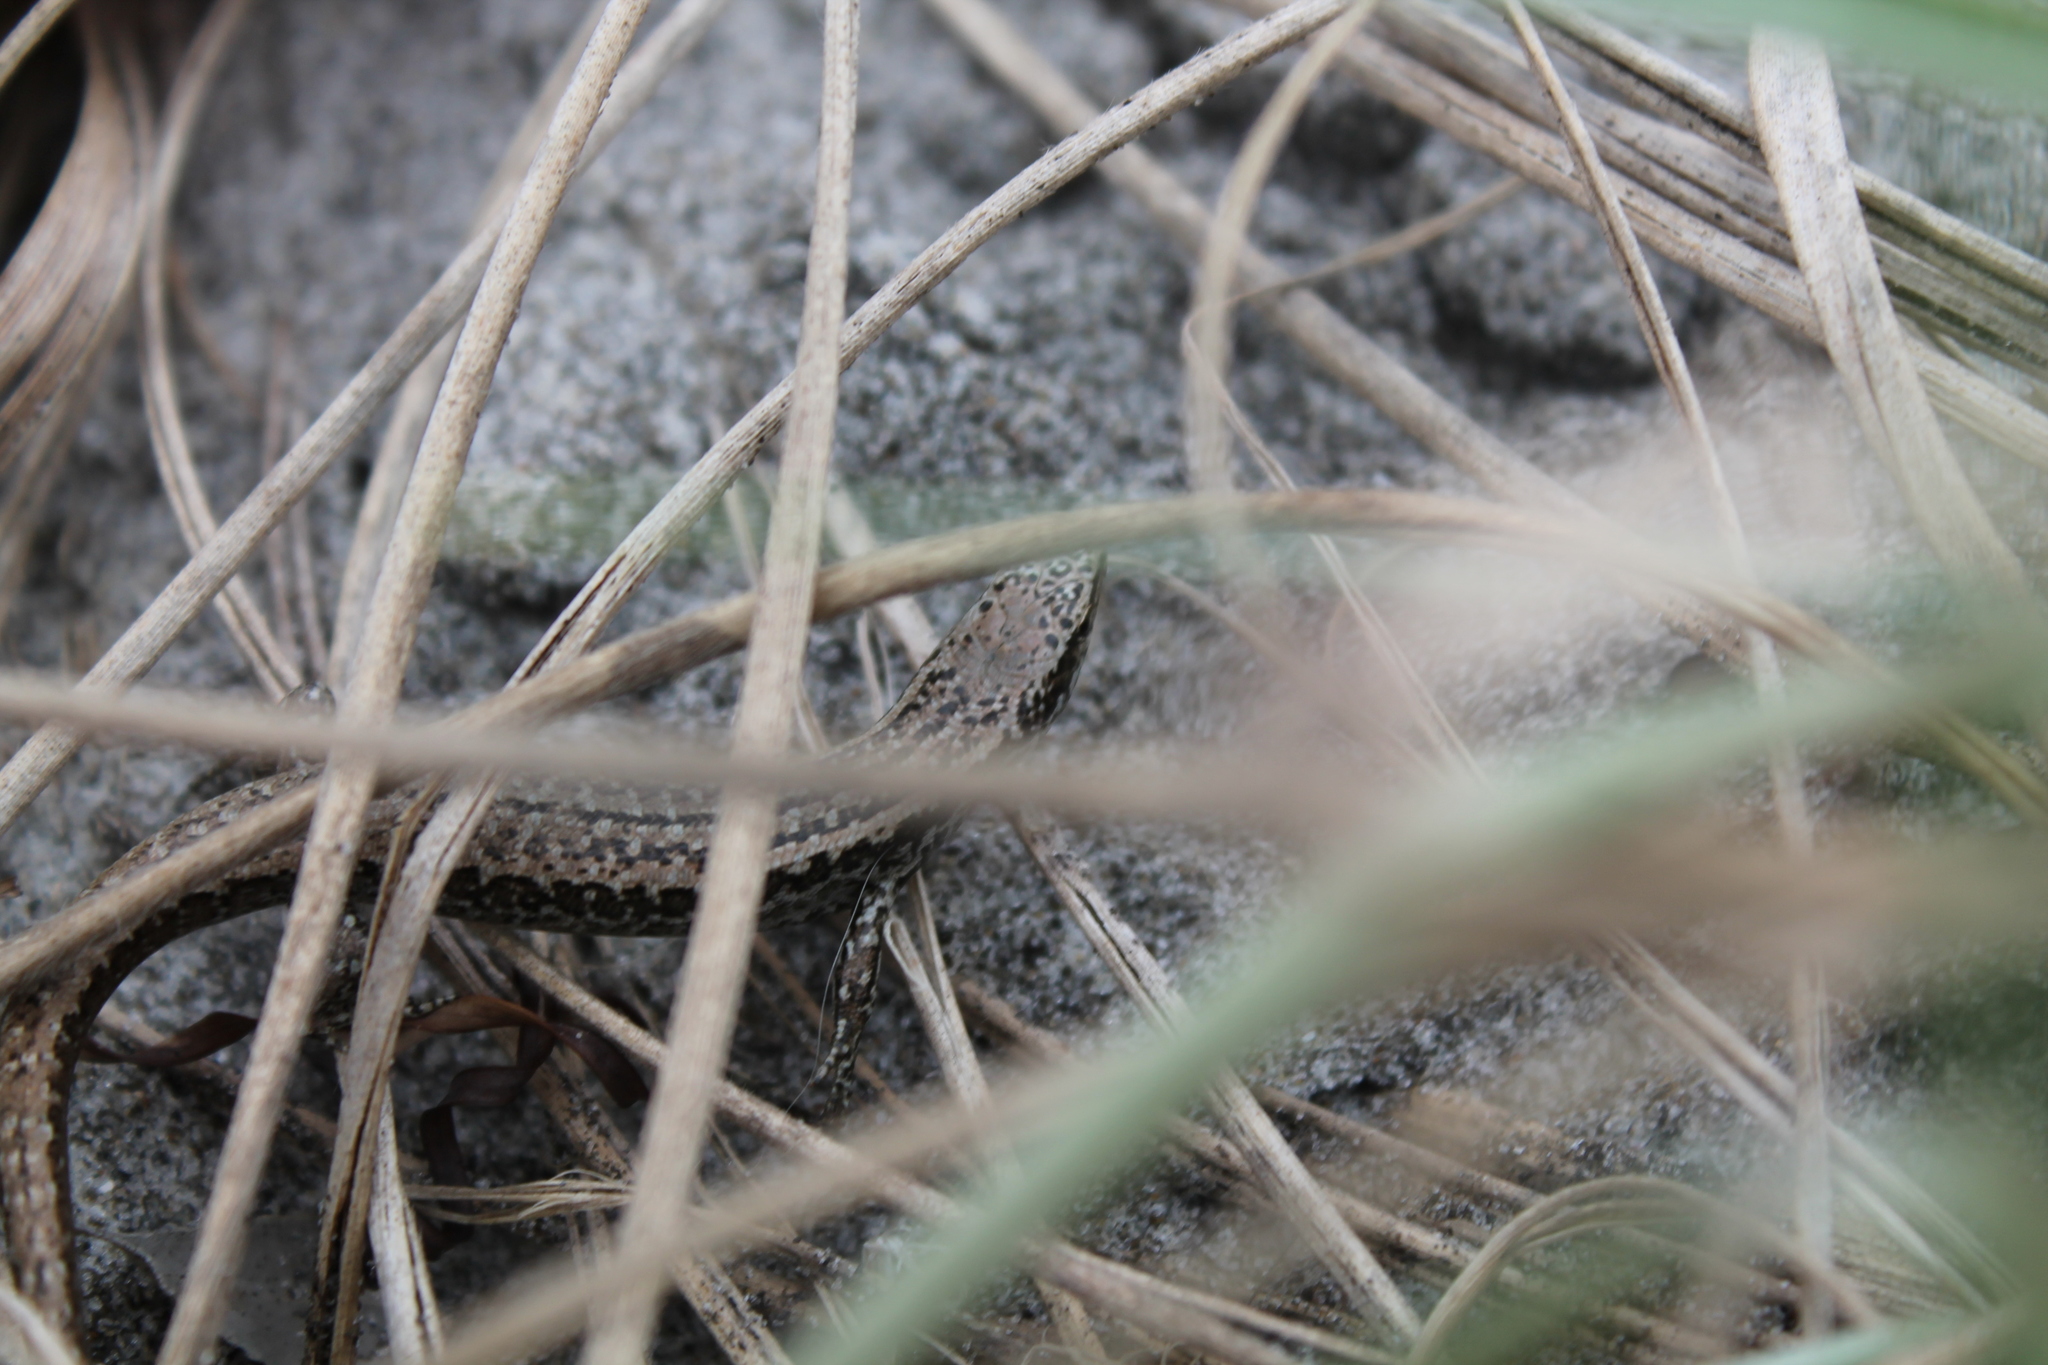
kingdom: Animalia
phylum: Chordata
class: Squamata
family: Scincidae
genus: Oligosoma
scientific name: Oligosoma smithi
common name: Shore skink
